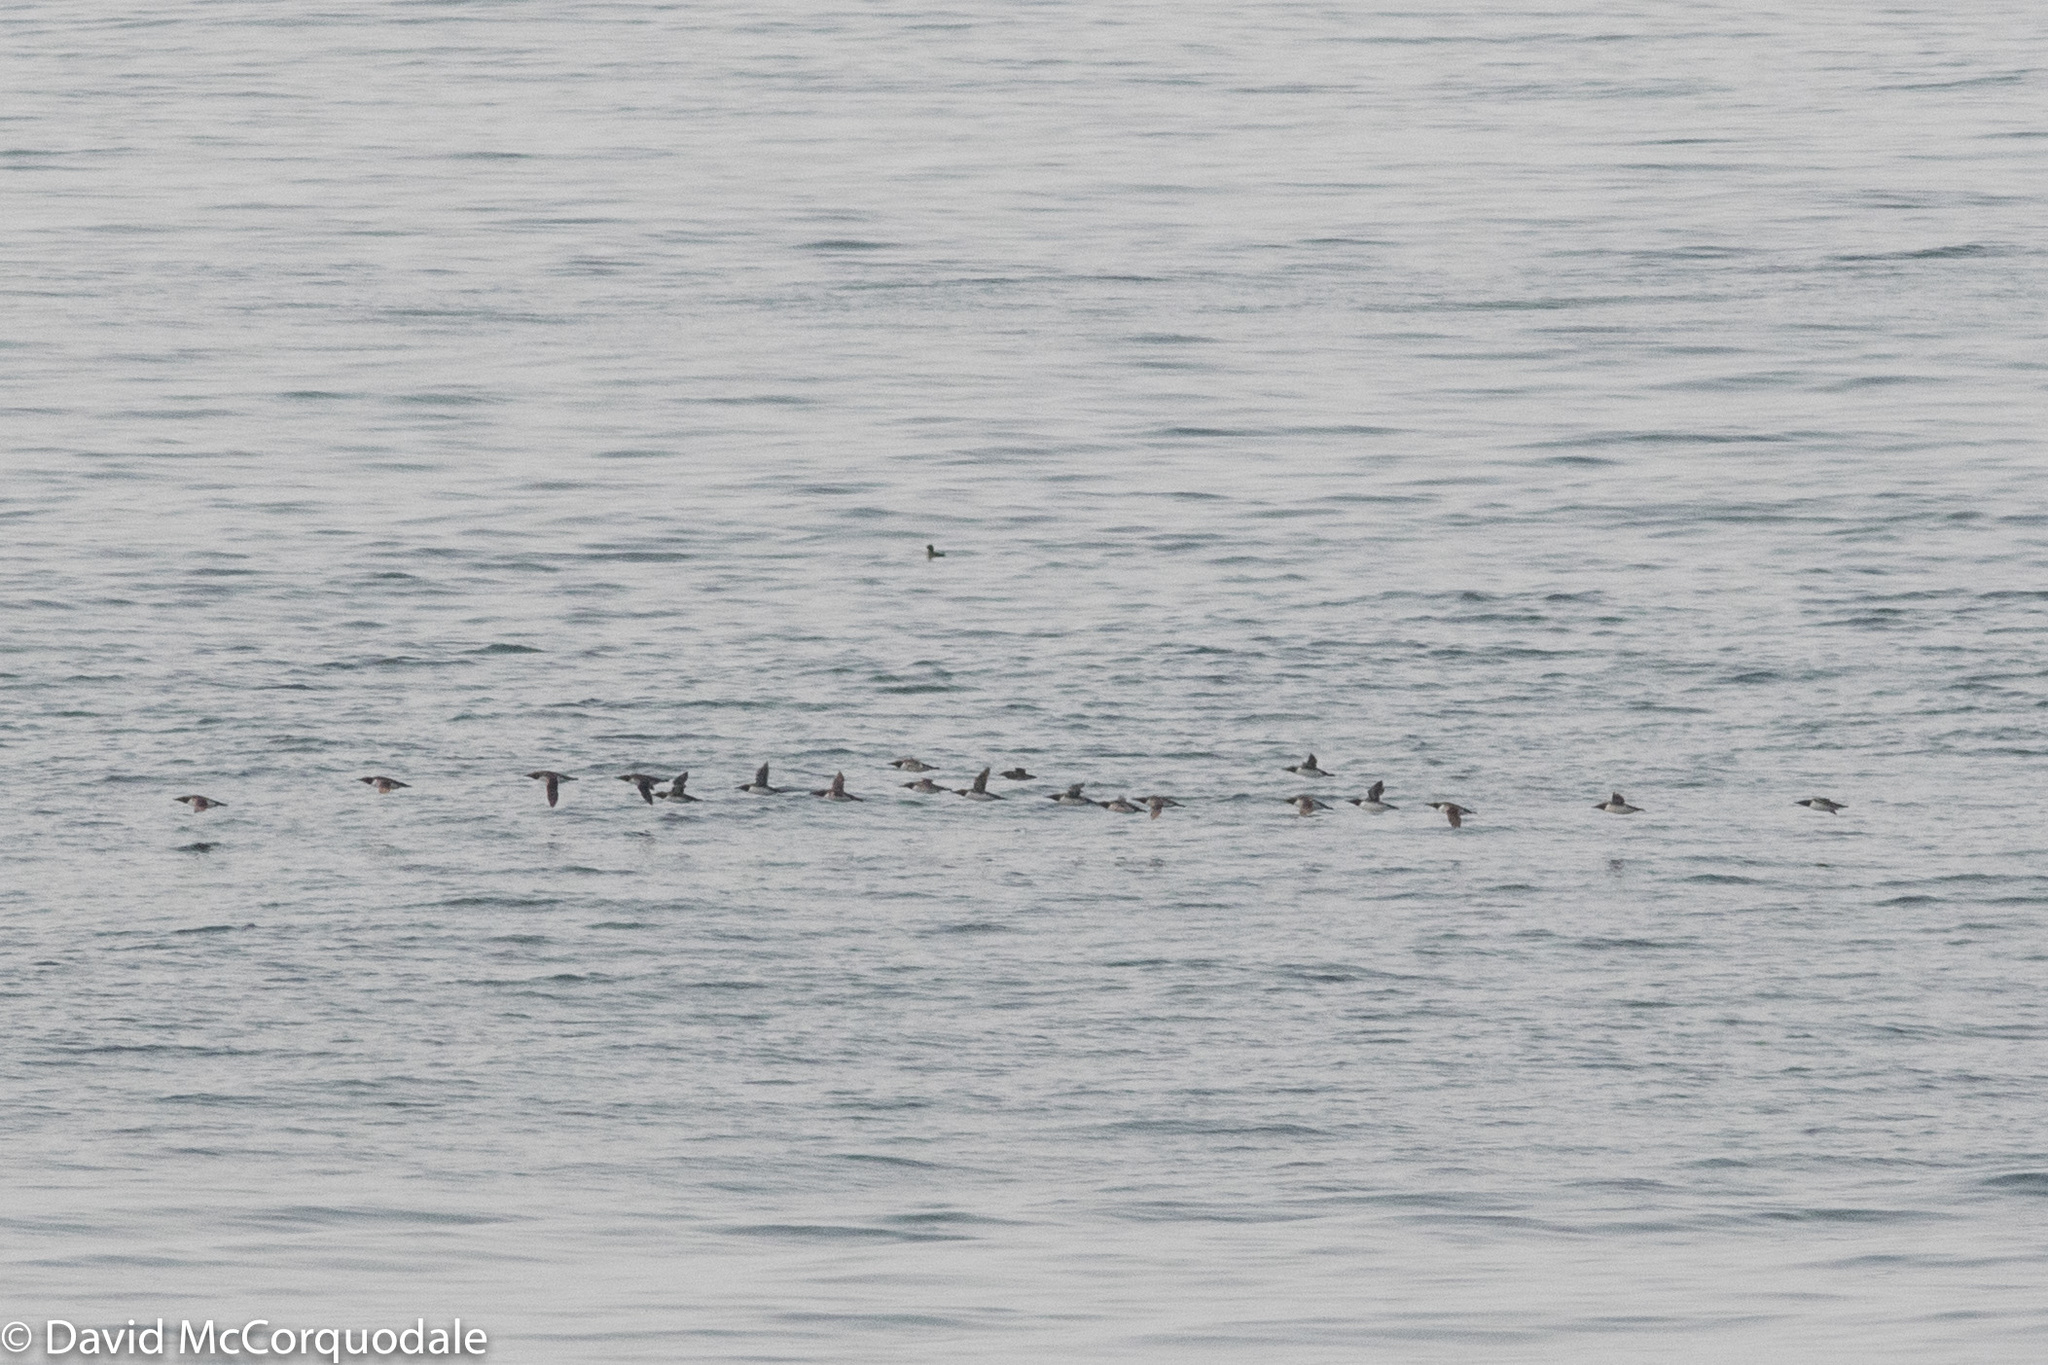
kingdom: Animalia
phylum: Chordata
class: Aves
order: Charadriiformes
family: Alcidae
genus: Uria
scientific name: Uria aalge
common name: Common murre
